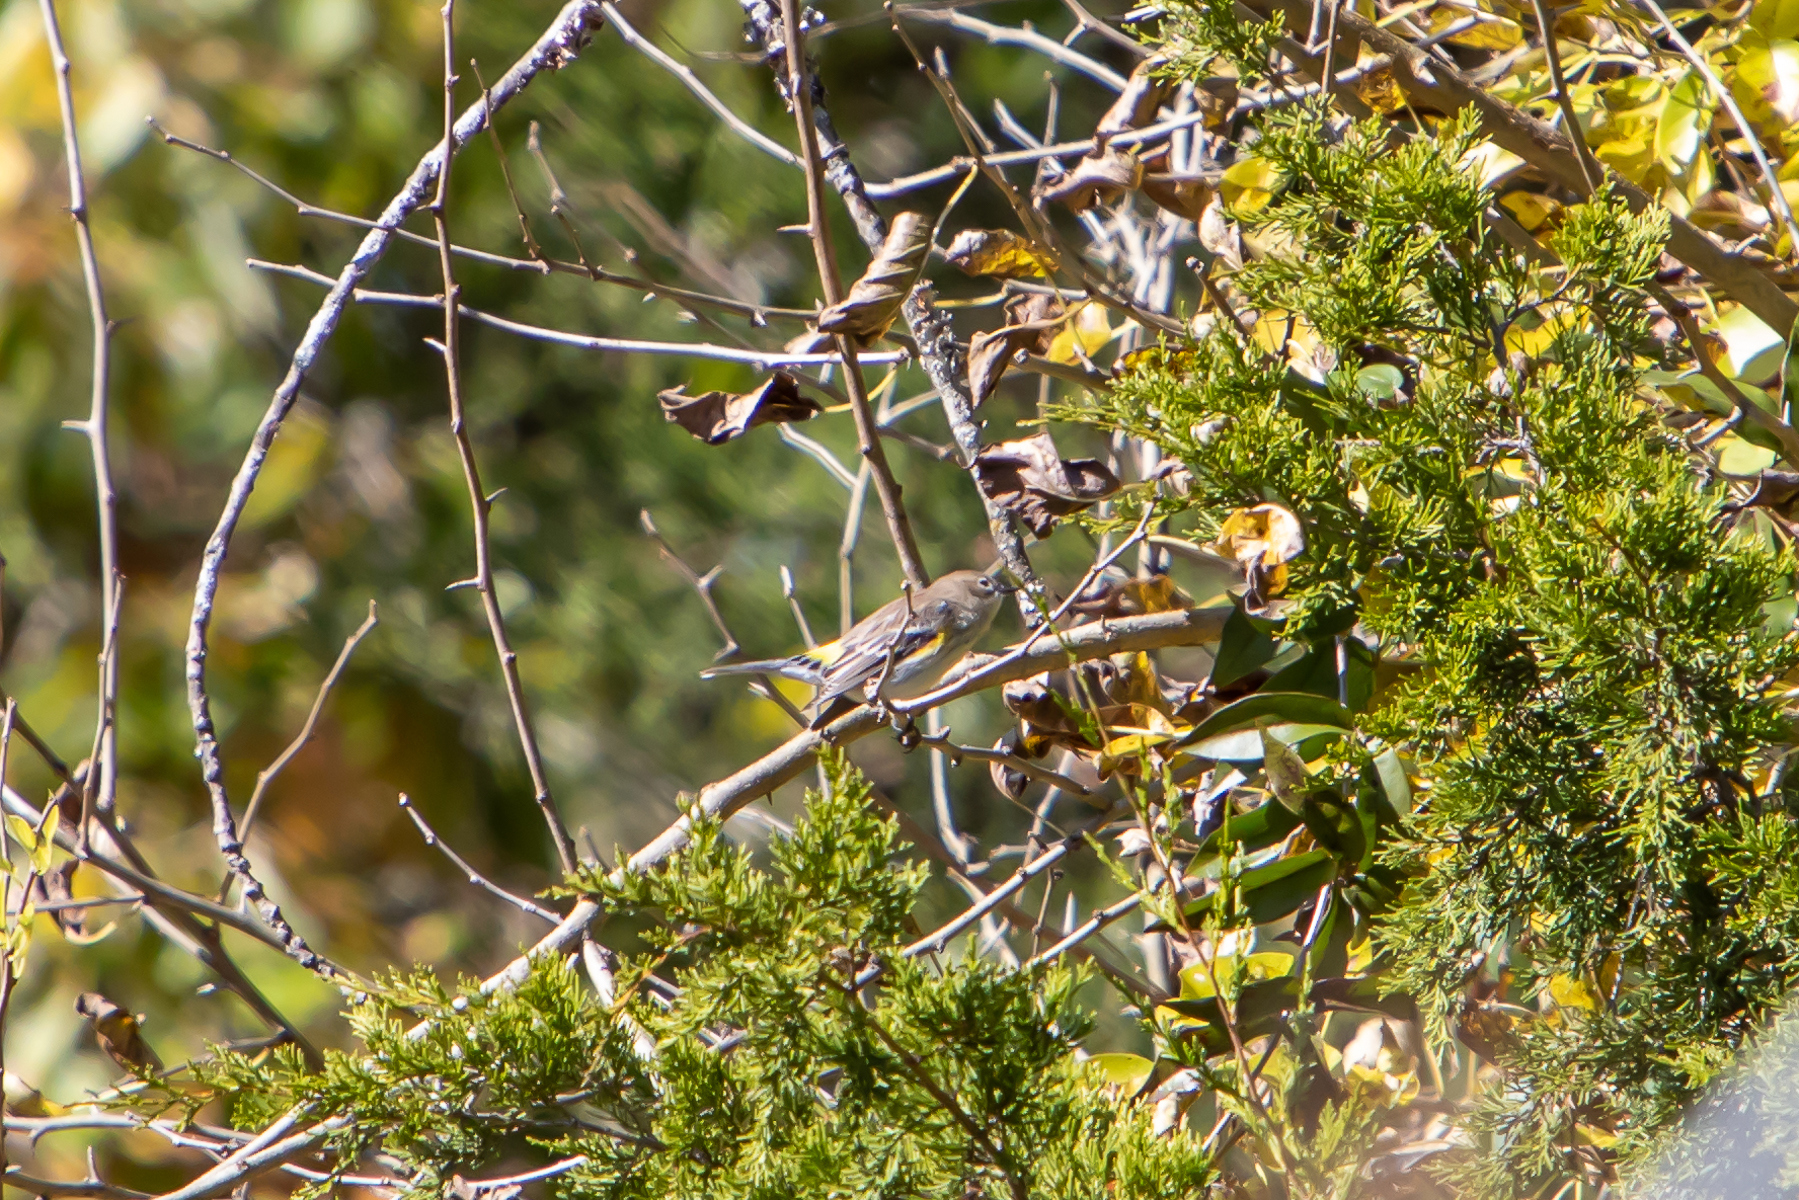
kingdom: Animalia
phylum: Chordata
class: Aves
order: Passeriformes
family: Parulidae
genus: Setophaga
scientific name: Setophaga coronata
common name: Myrtle warbler
